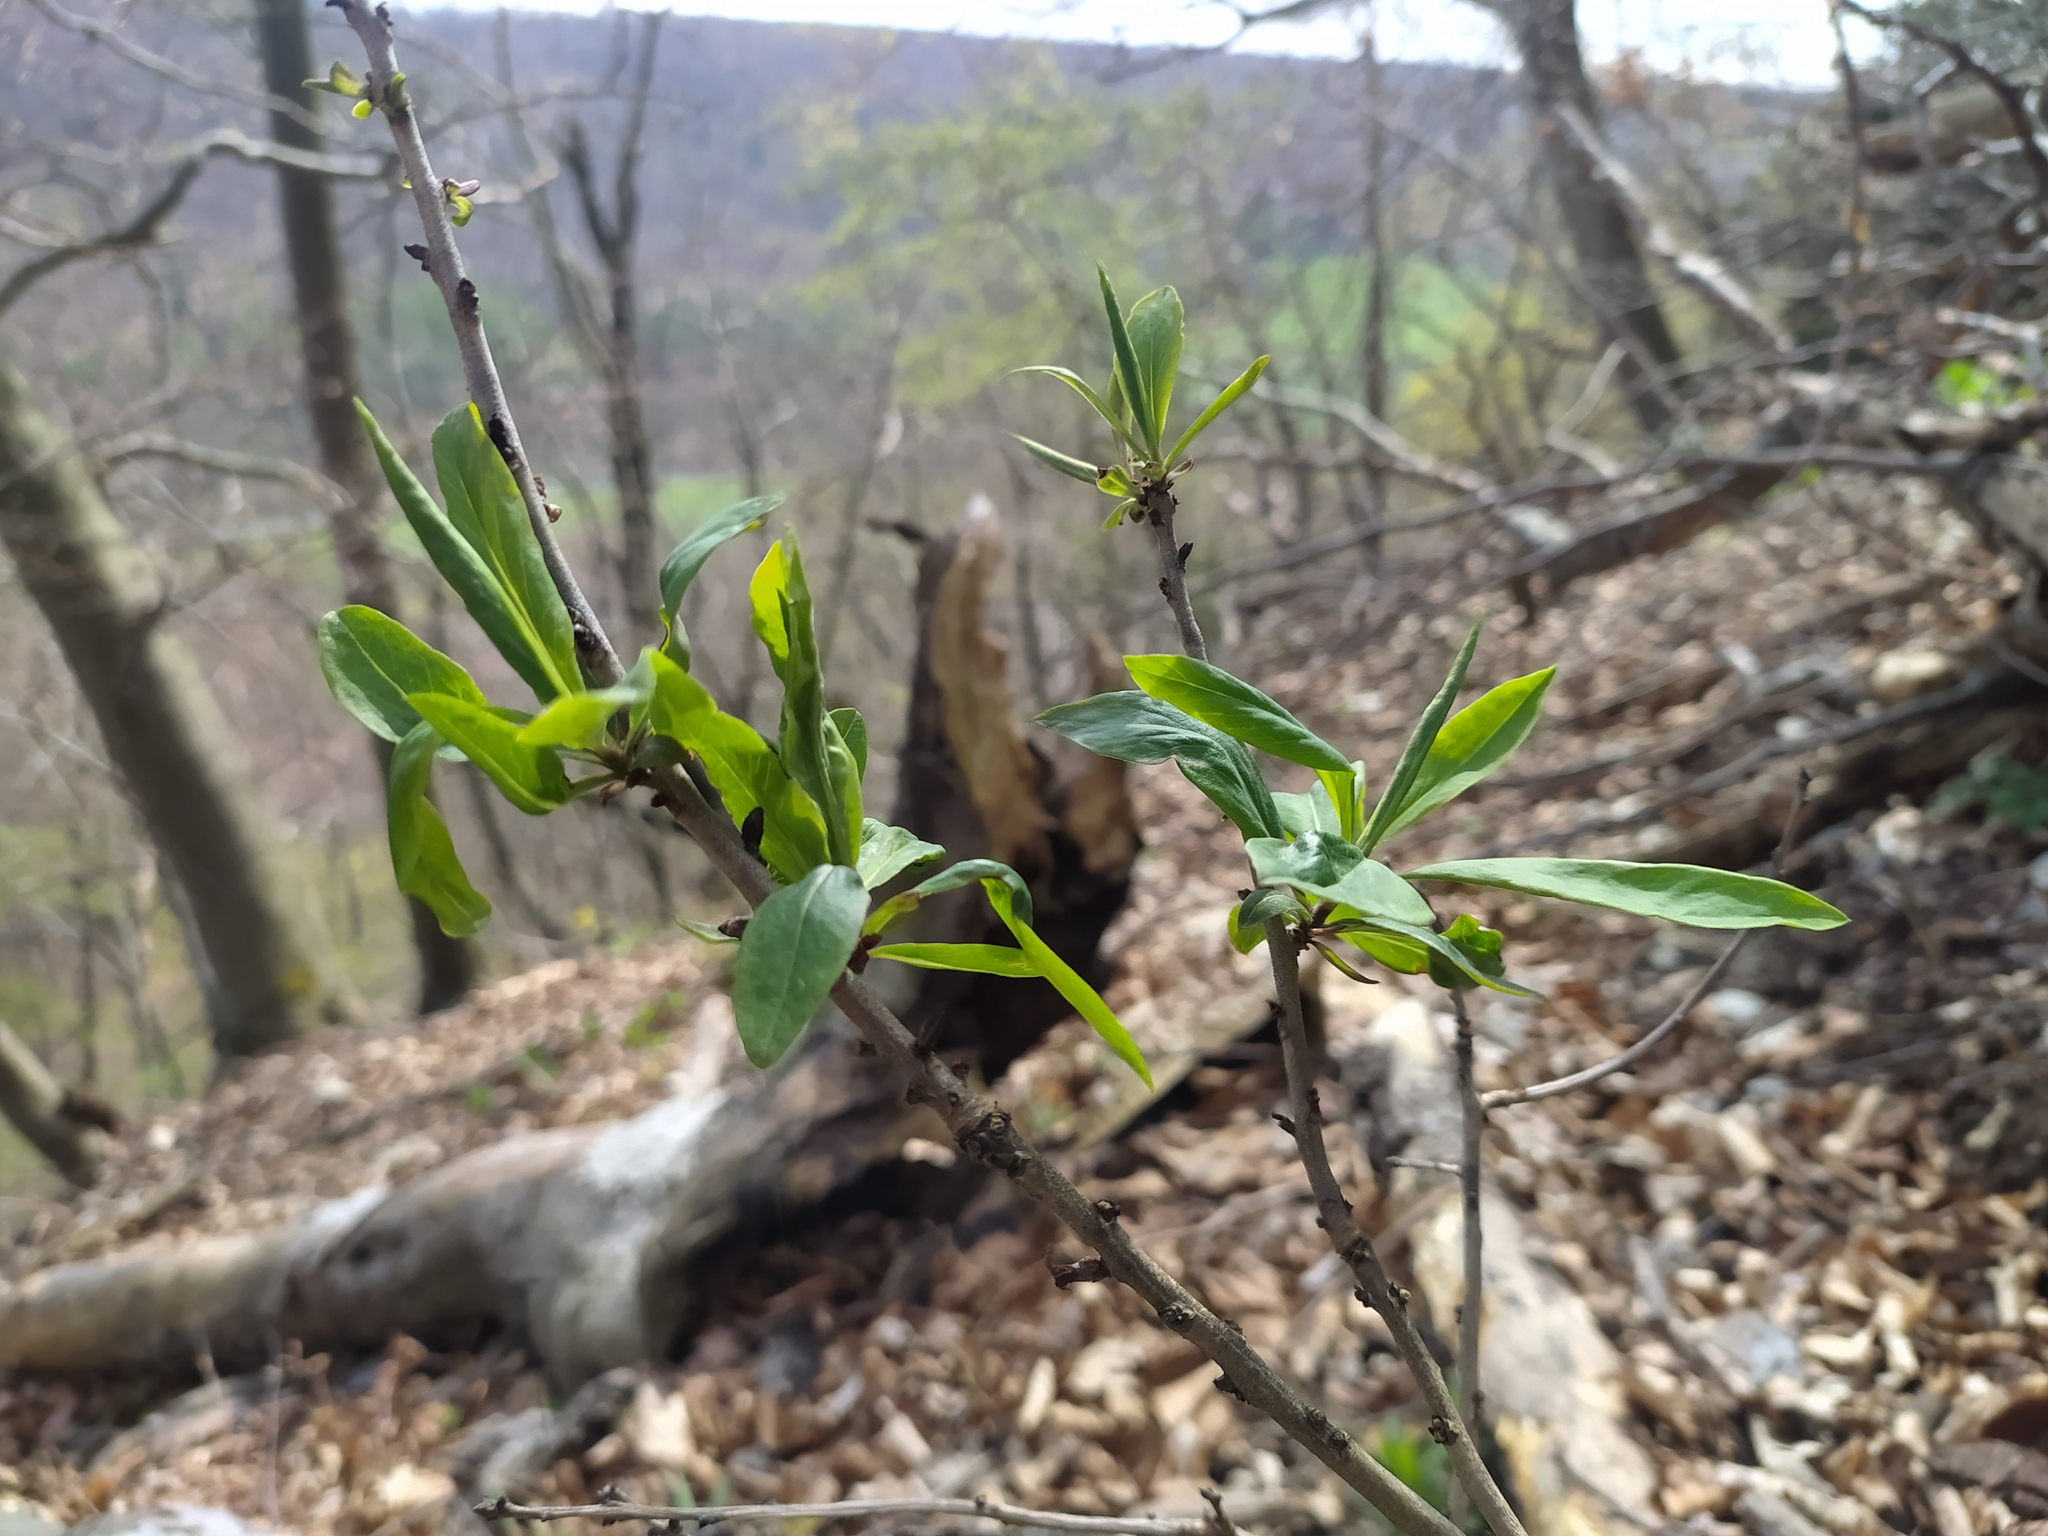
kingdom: Plantae
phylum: Tracheophyta
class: Magnoliopsida
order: Malvales
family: Thymelaeaceae
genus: Daphne
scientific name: Daphne mezereum
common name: Mezereon
